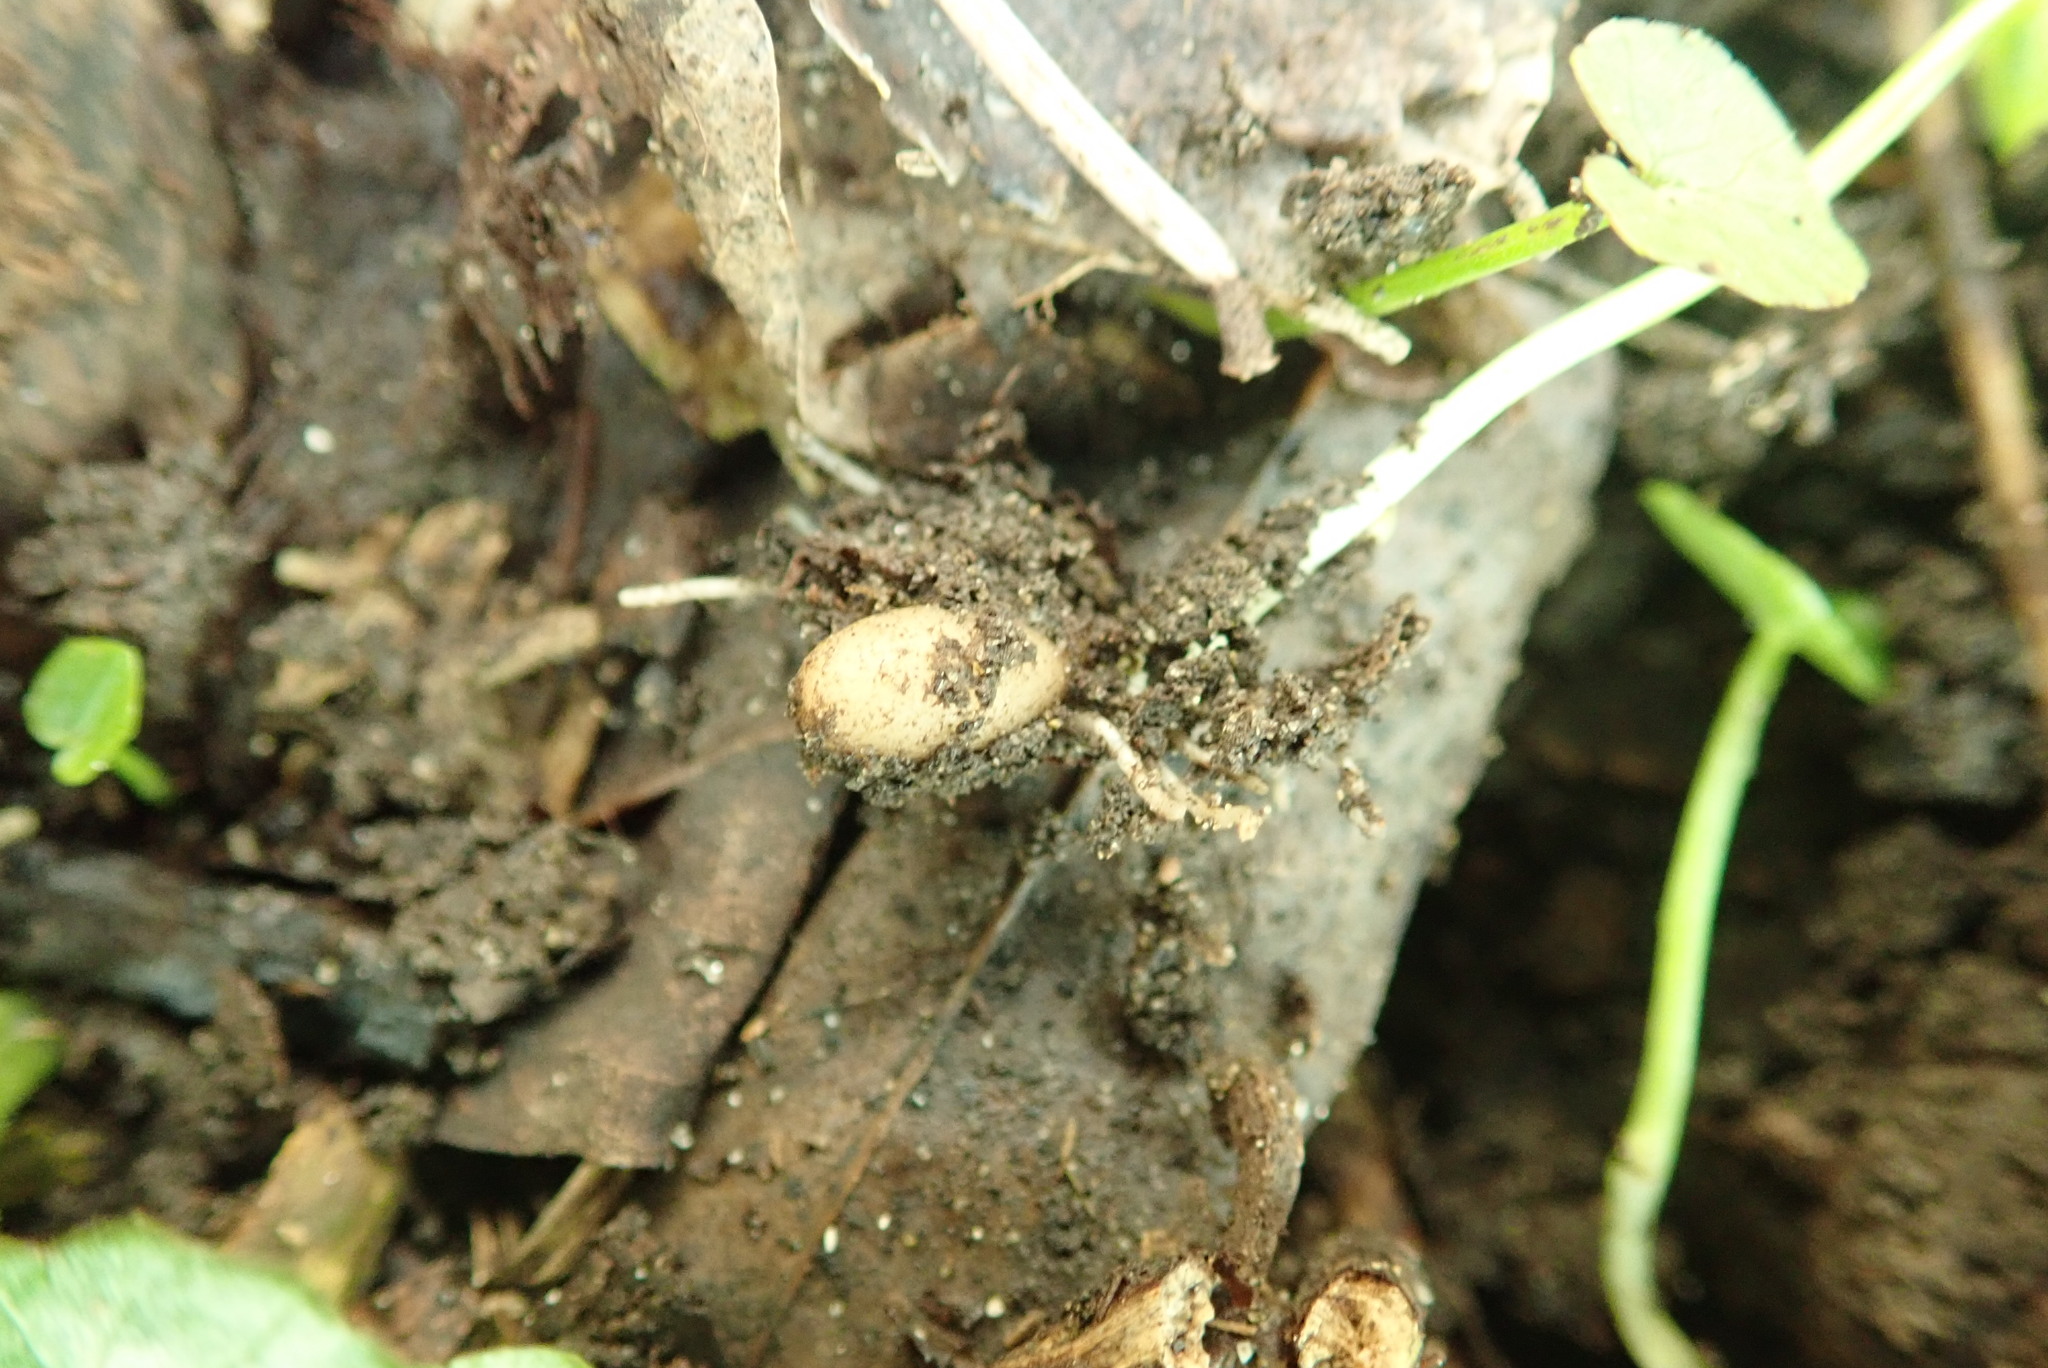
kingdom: Plantae
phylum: Tracheophyta
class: Magnoliopsida
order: Ranunculales
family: Ranunculaceae
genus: Ficaria
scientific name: Ficaria verna
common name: Lesser celandine
